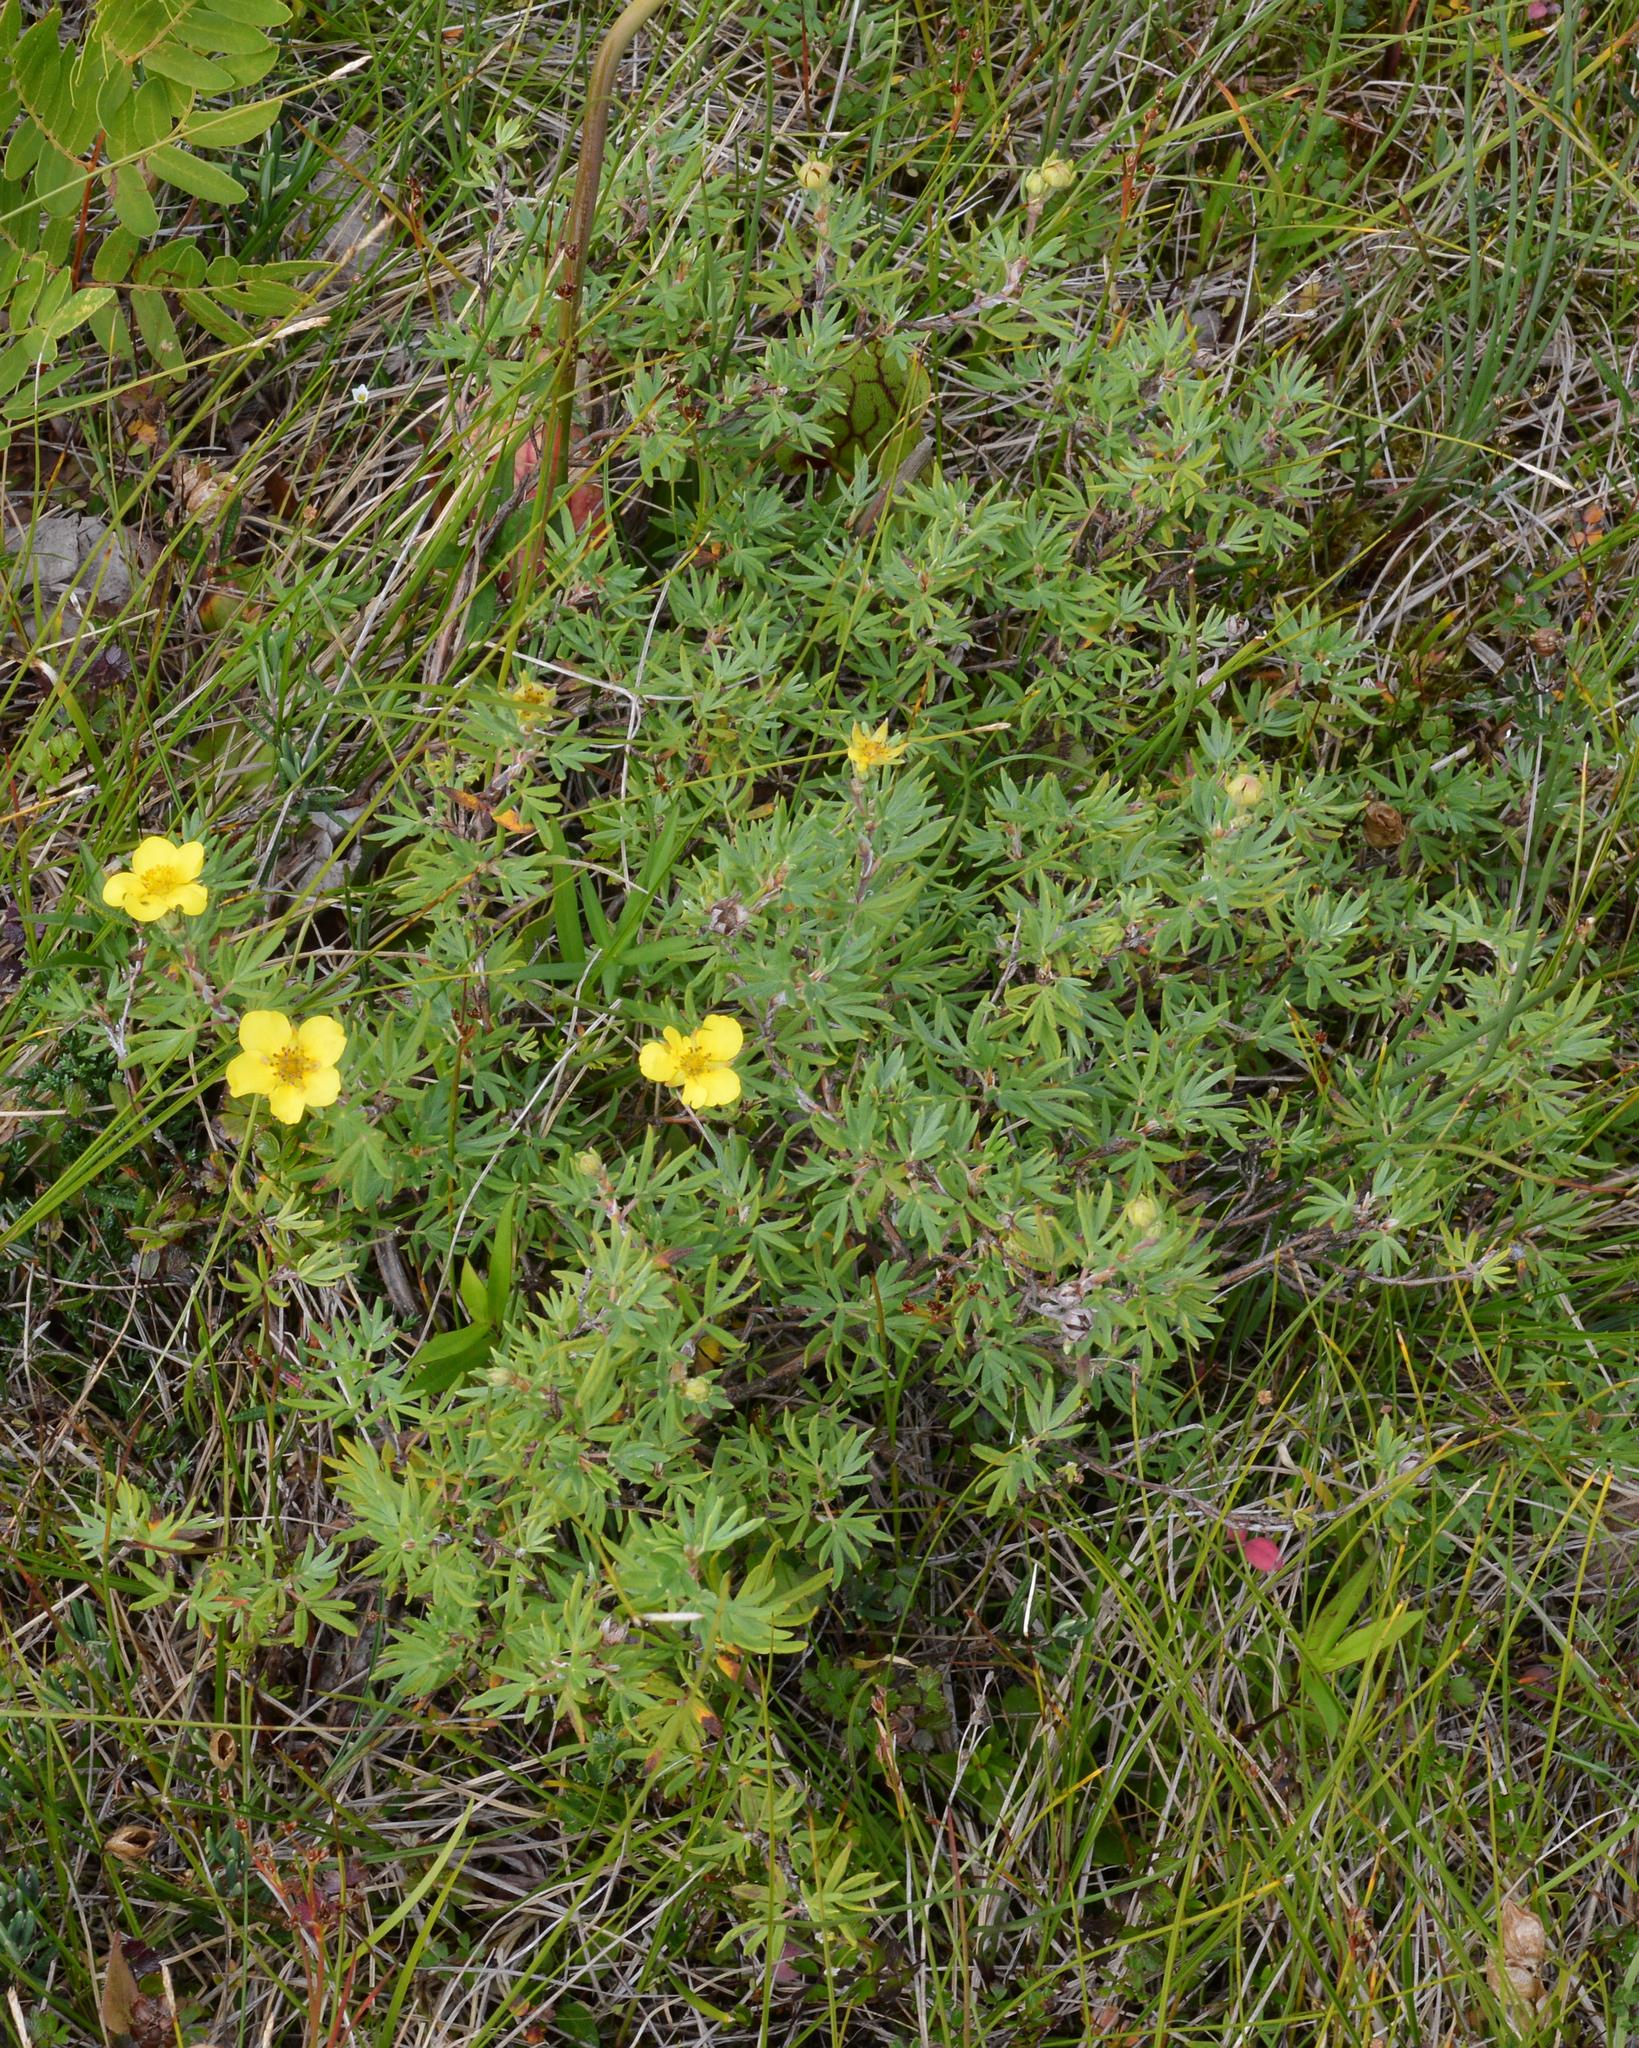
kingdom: Plantae
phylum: Tracheophyta
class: Magnoliopsida
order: Rosales
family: Rosaceae
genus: Dasiphora
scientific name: Dasiphora fruticosa
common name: Shrubby cinquefoil
